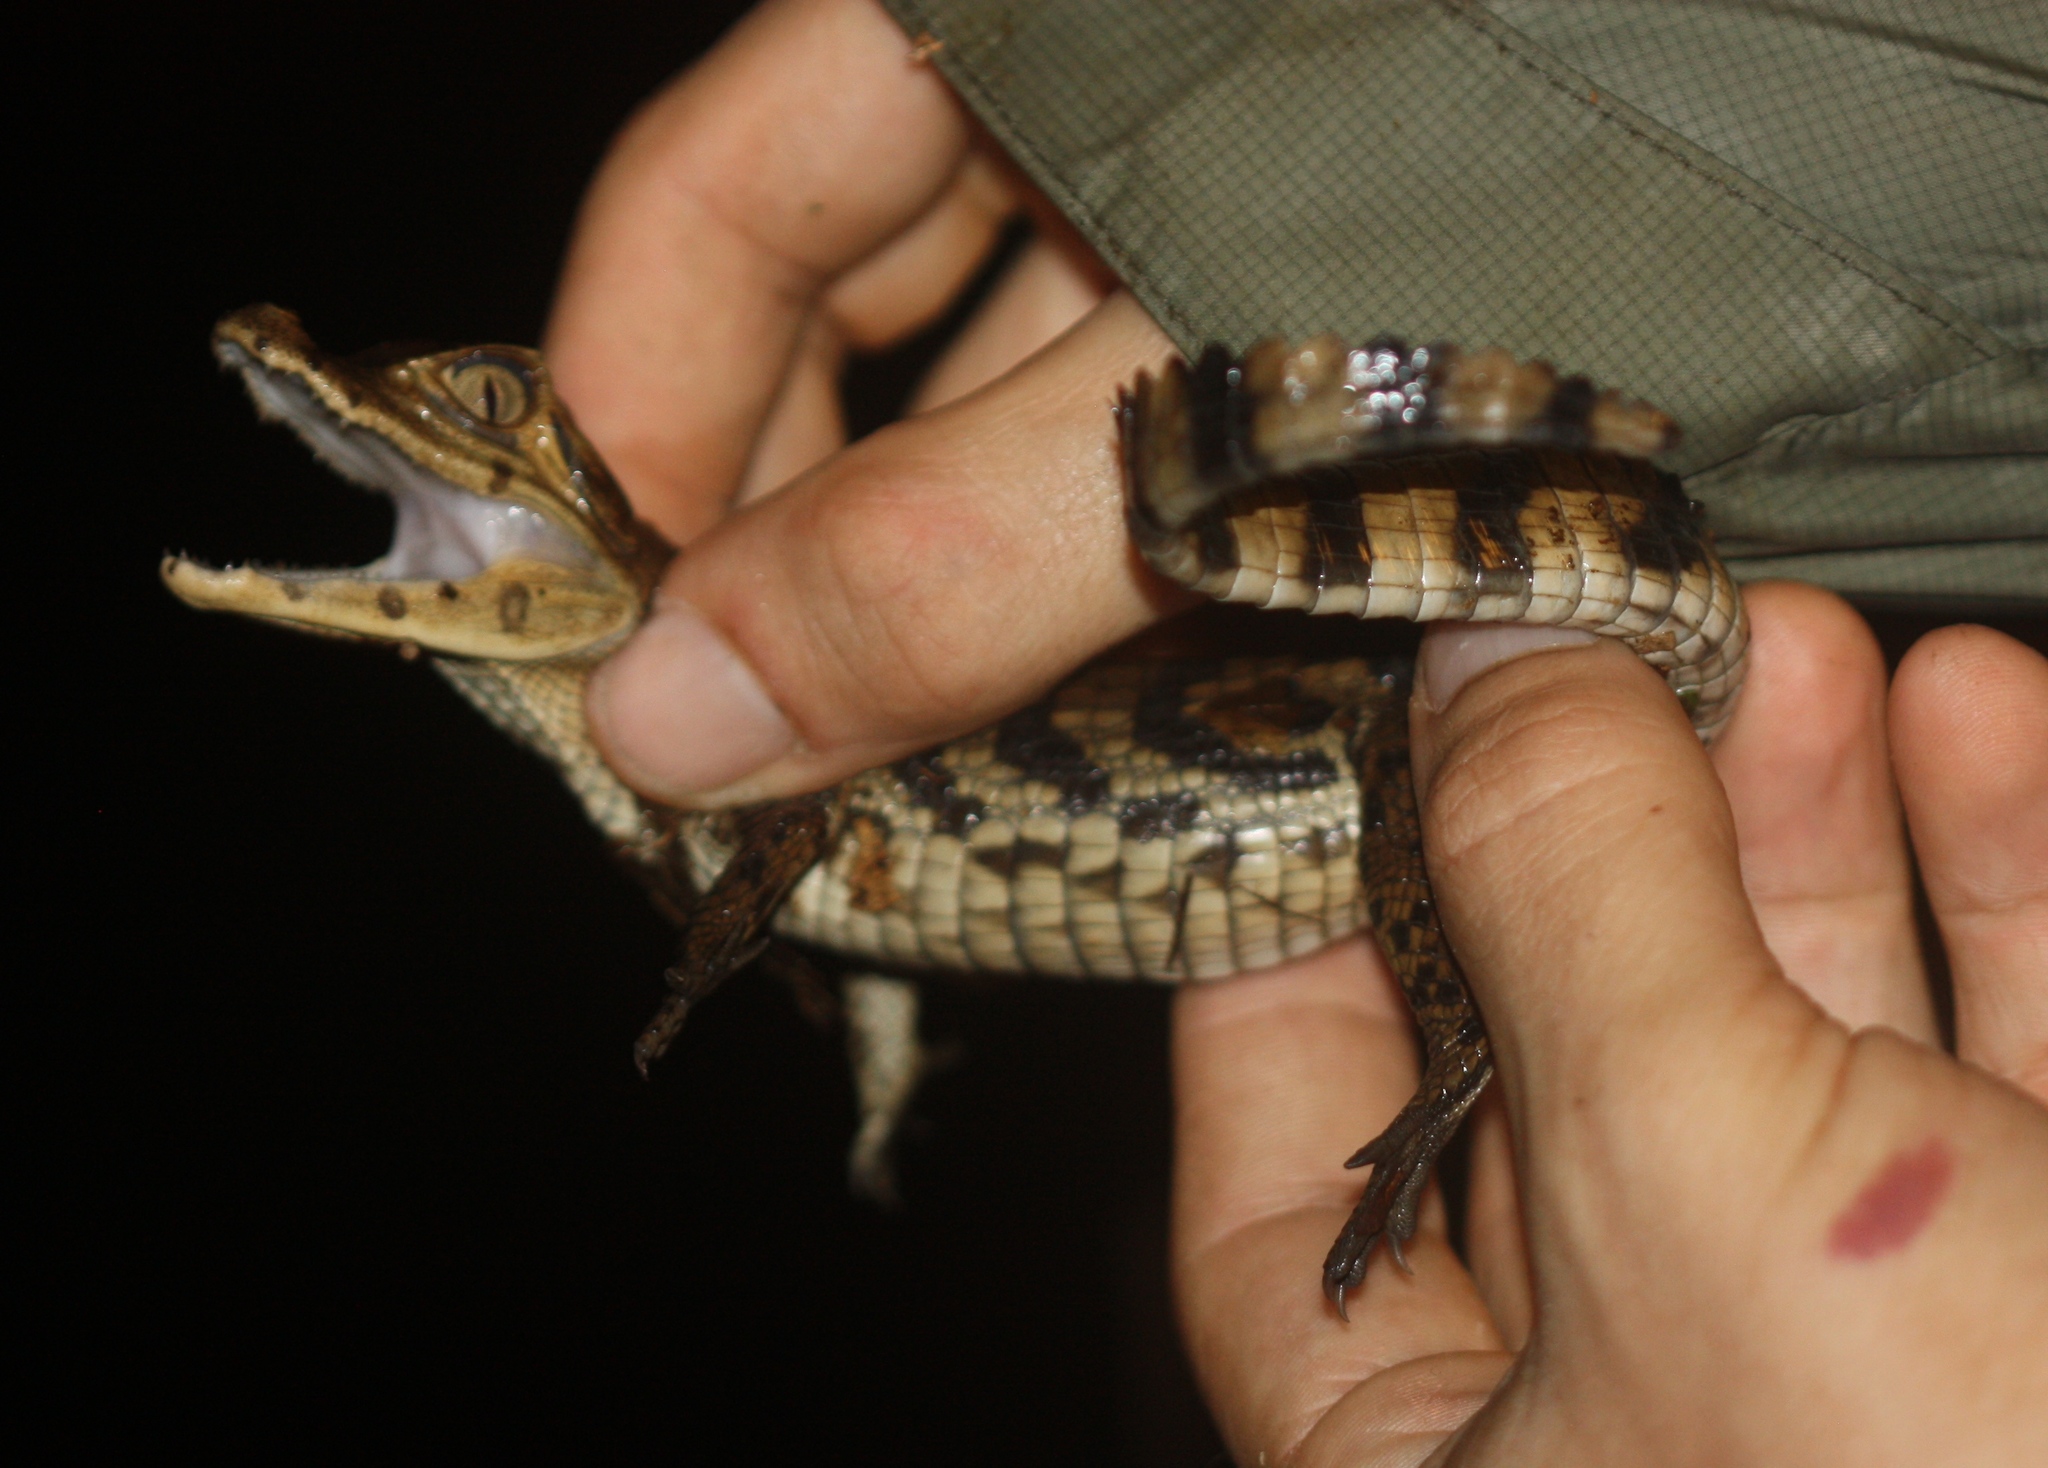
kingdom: Animalia
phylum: Chordata
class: Crocodylia
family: Alligatoridae
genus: Caiman
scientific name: Caiman crocodilus
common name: Common caiman
